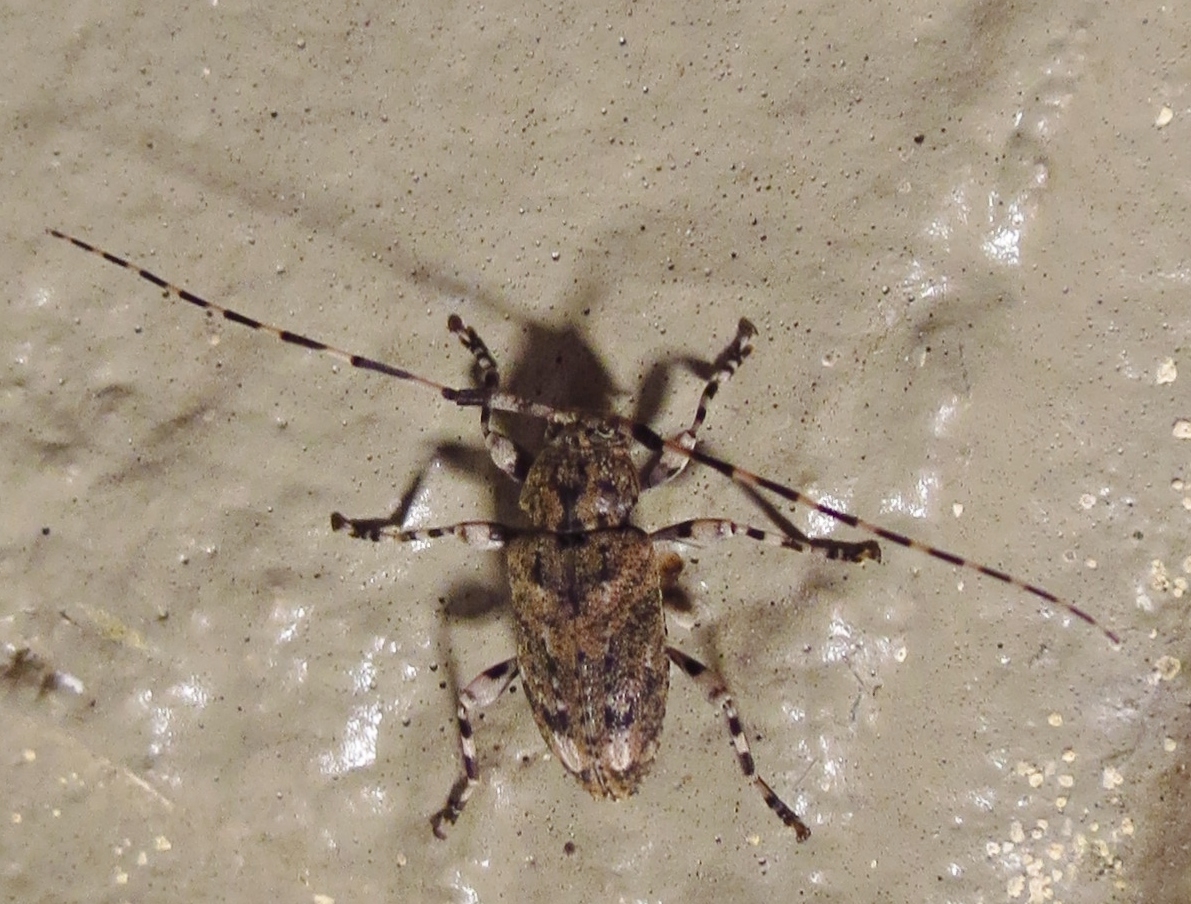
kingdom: Animalia
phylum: Arthropoda
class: Insecta
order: Coleoptera
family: Cerambycidae
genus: Astyleiopus
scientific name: Astyleiopus variegatus
